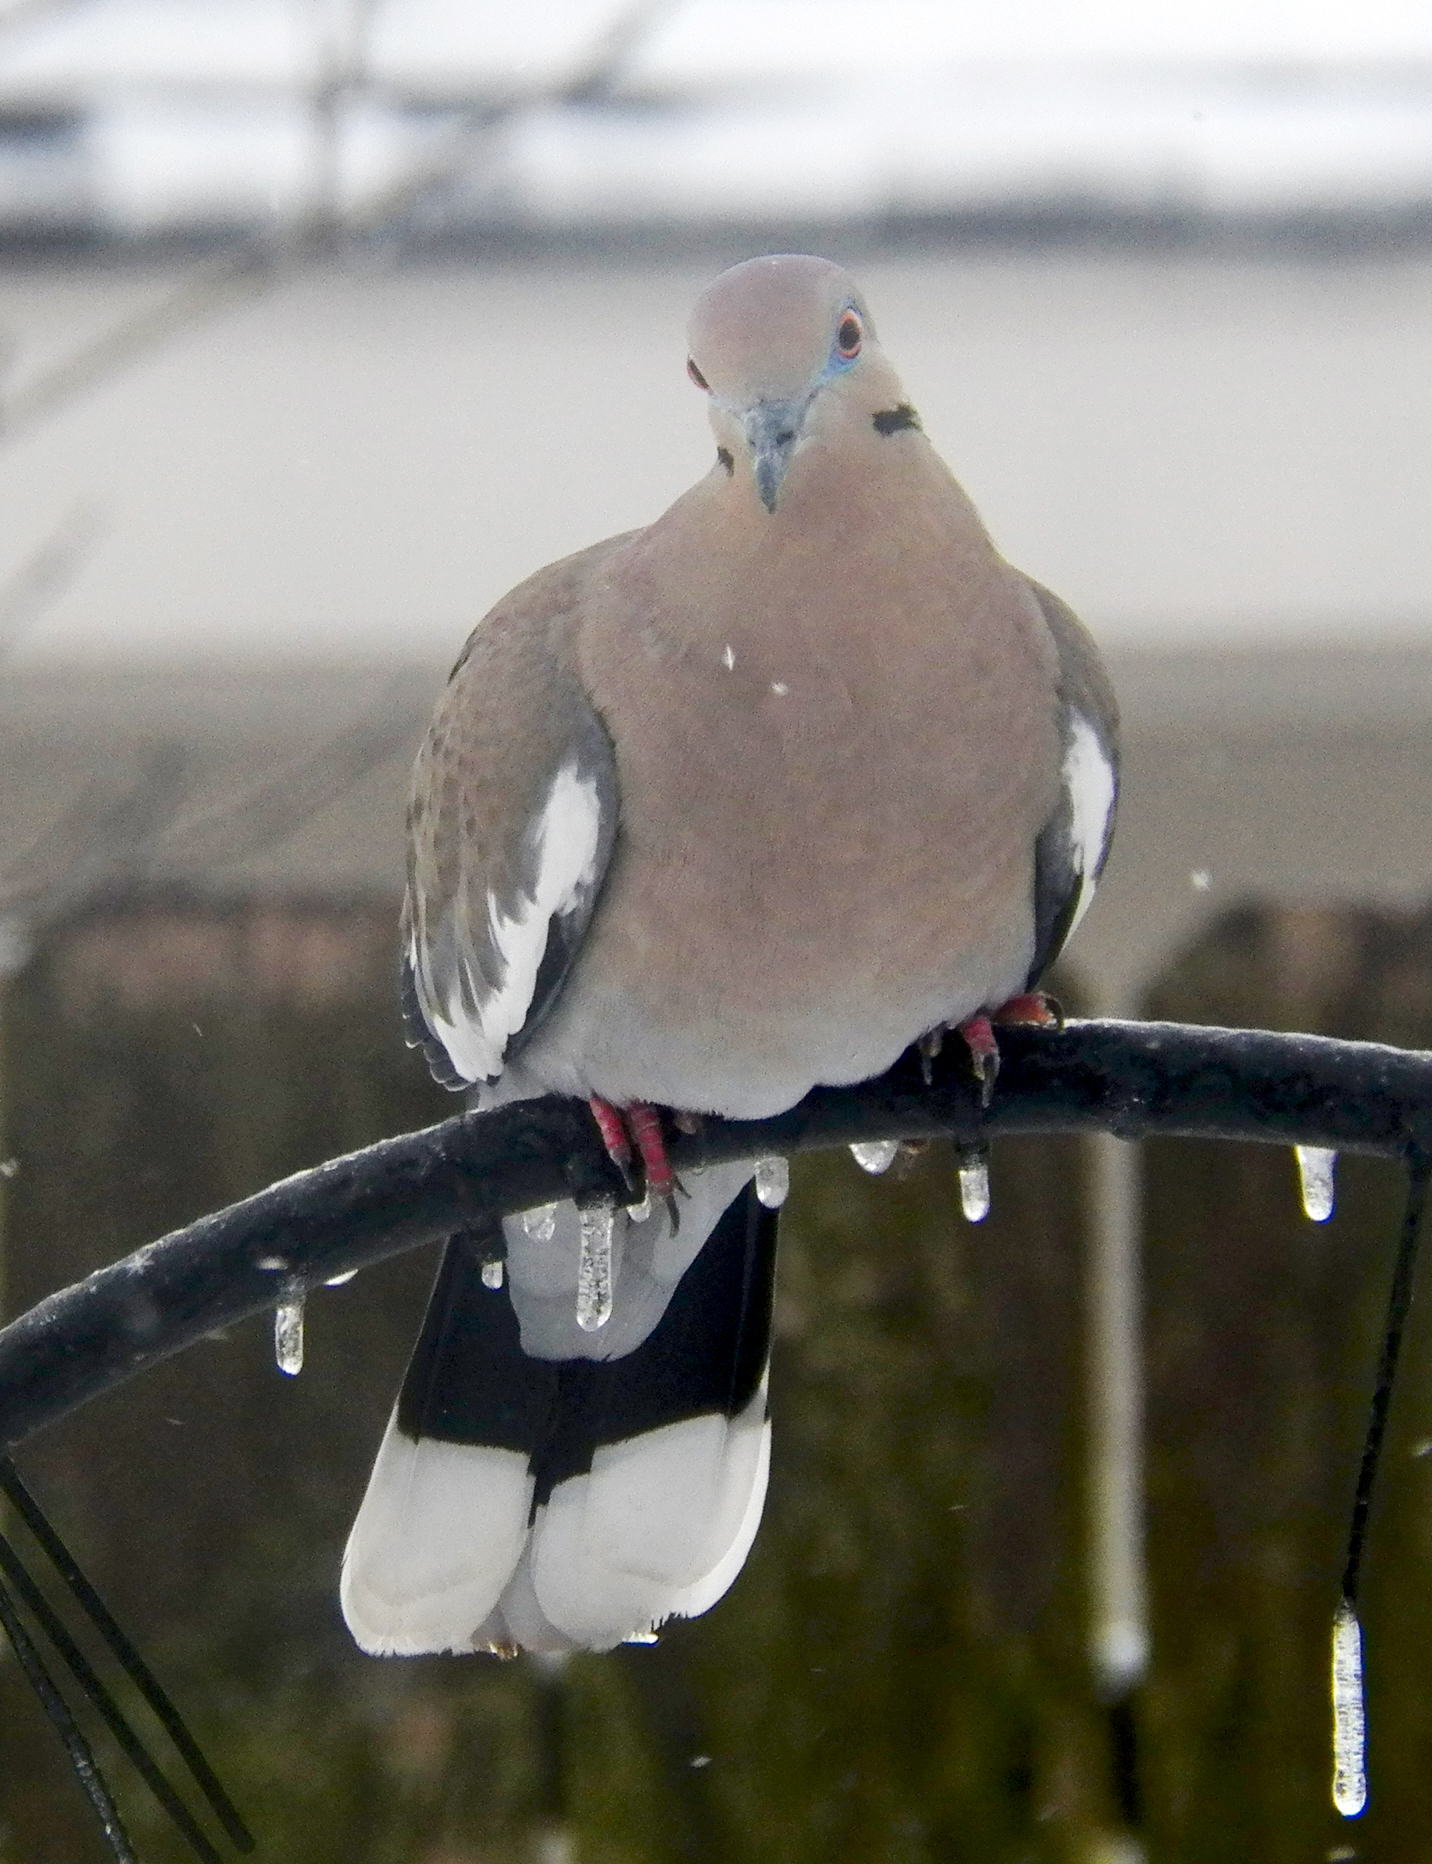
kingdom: Animalia
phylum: Chordata
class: Aves
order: Columbiformes
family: Columbidae
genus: Zenaida
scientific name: Zenaida asiatica
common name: White-winged dove
